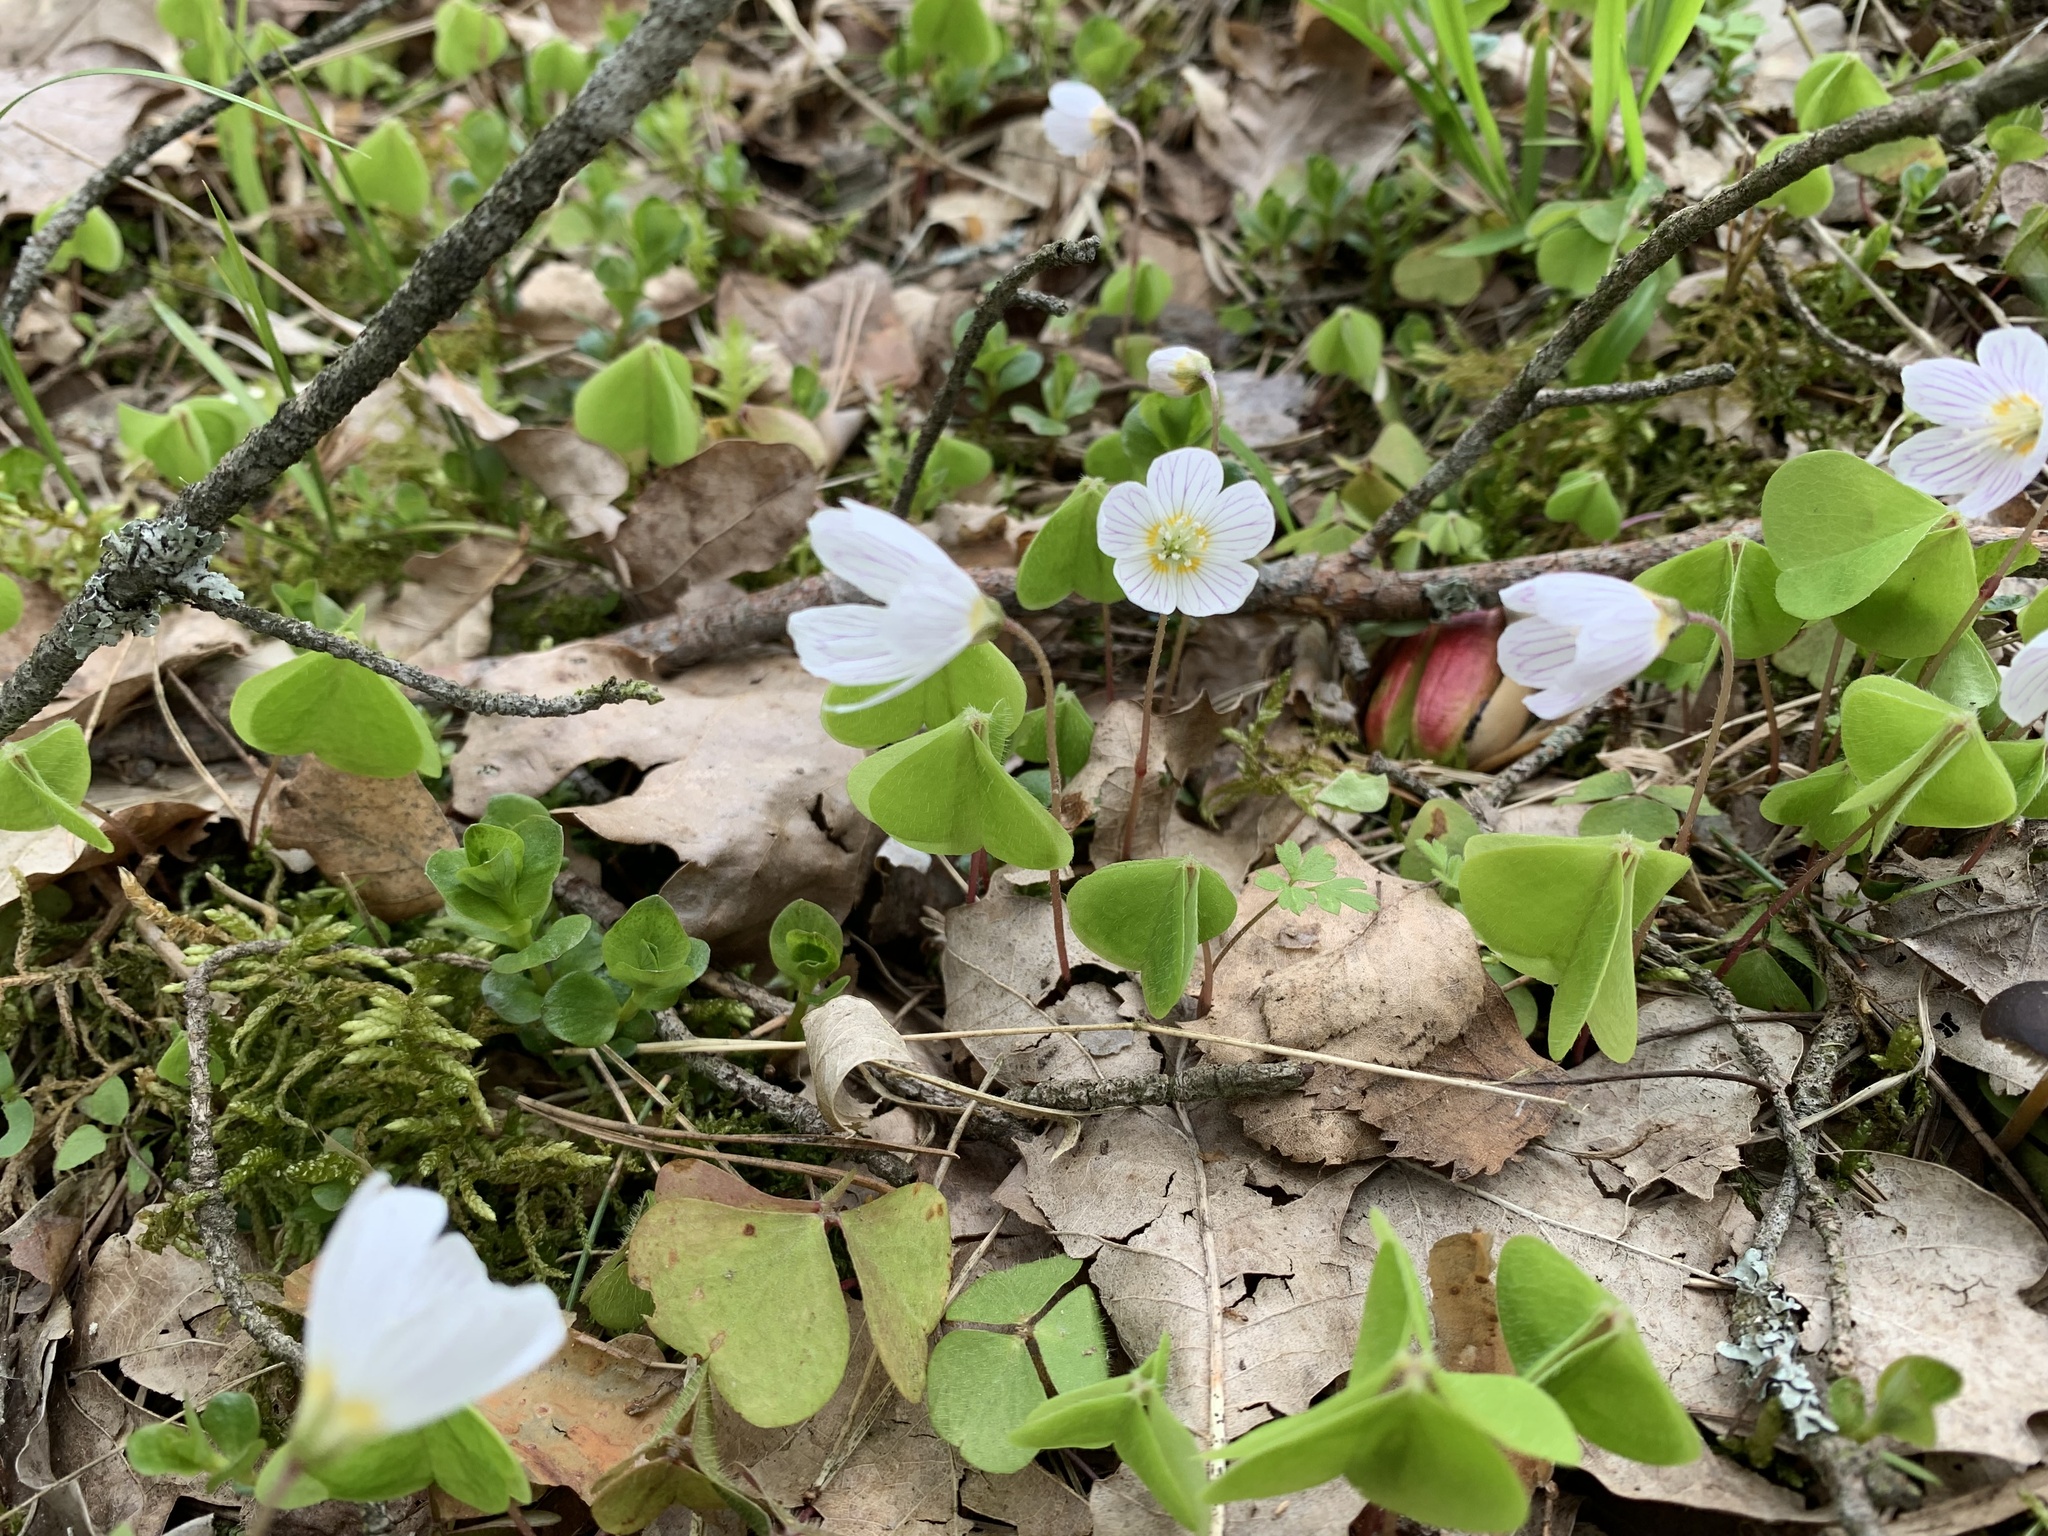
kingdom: Plantae
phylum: Tracheophyta
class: Magnoliopsida
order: Oxalidales
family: Oxalidaceae
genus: Oxalis
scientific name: Oxalis acetosella
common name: Wood-sorrel
